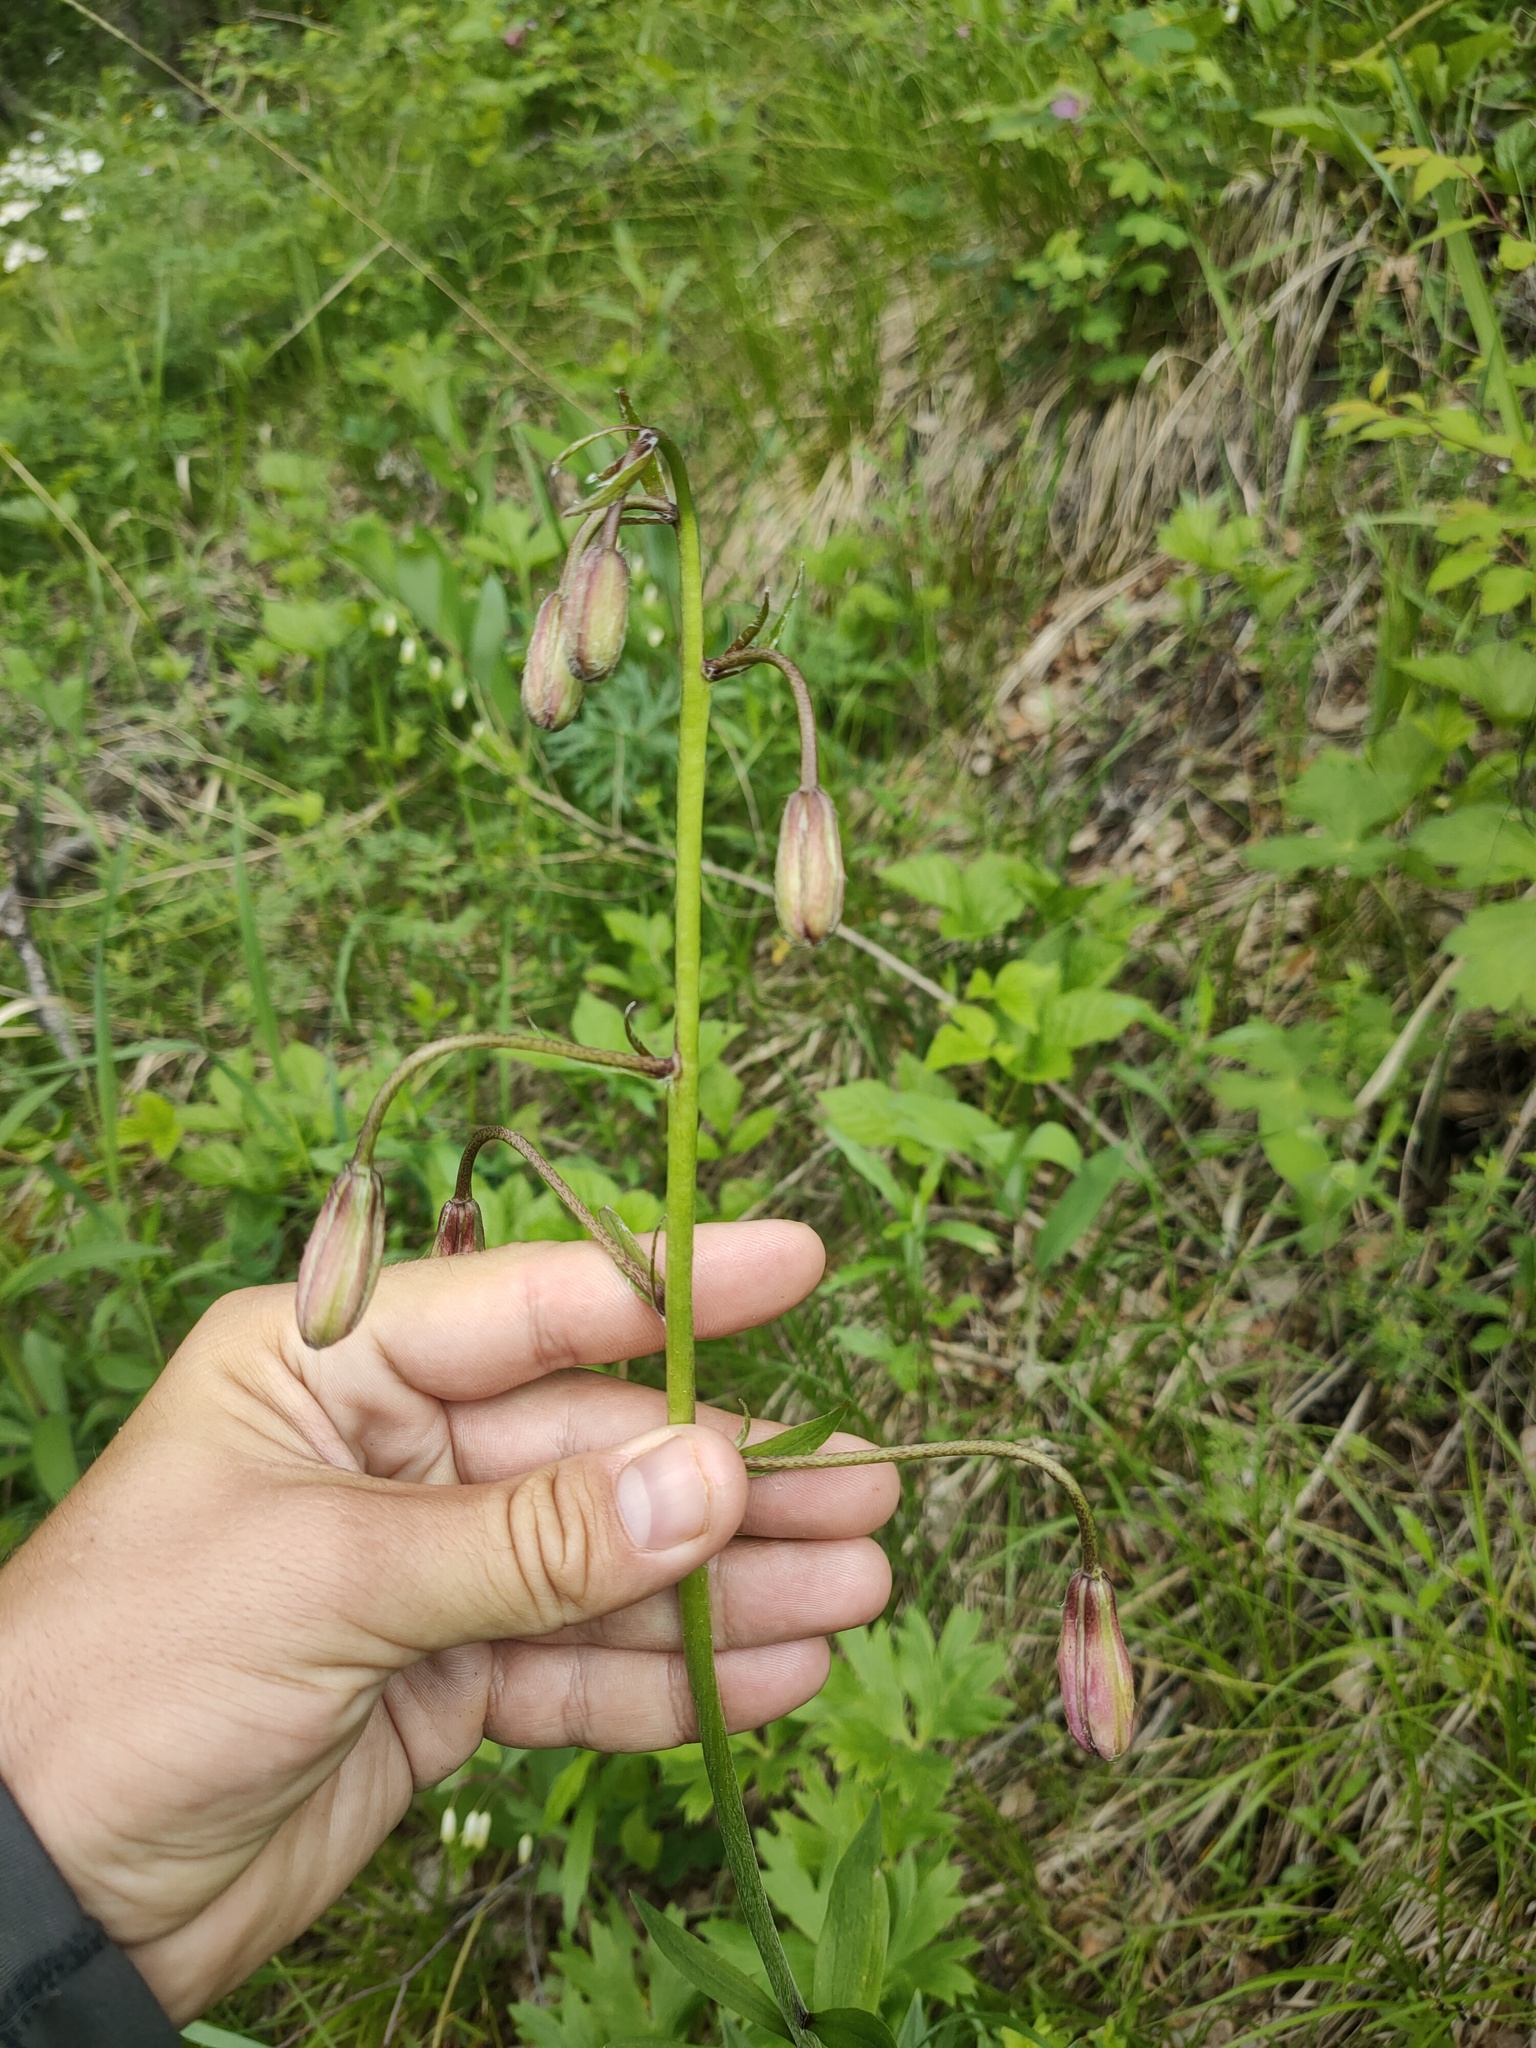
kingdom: Plantae
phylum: Tracheophyta
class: Liliopsida
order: Liliales
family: Liliaceae
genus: Lilium
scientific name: Lilium martagon
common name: Martagon lily
